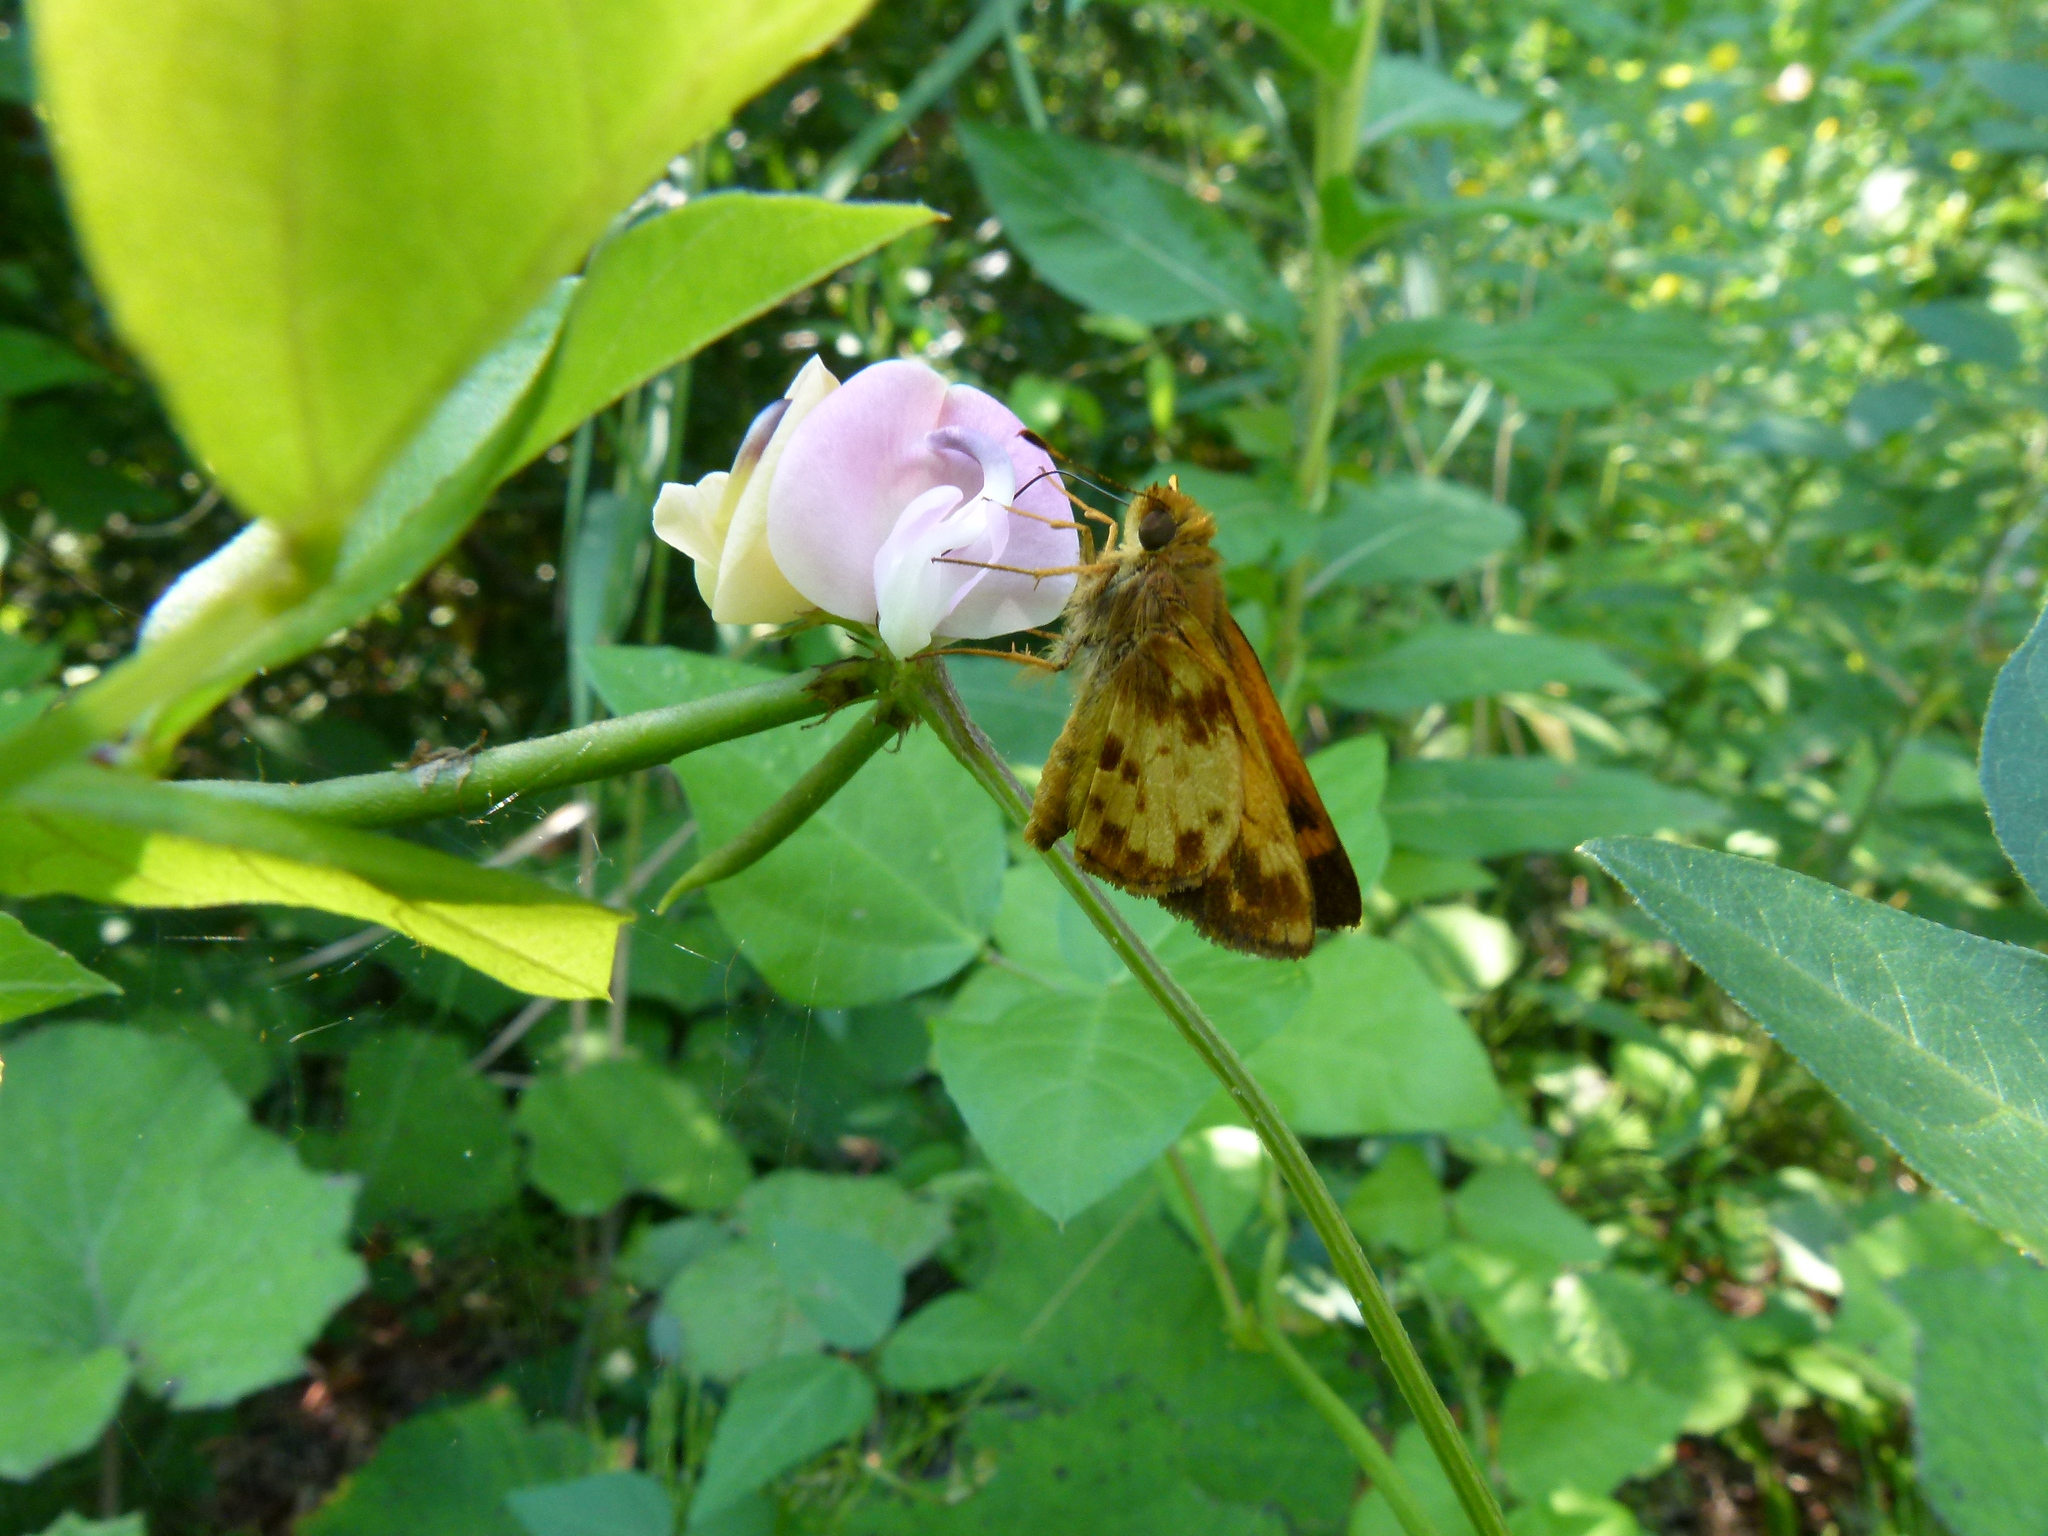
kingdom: Animalia
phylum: Arthropoda
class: Insecta
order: Lepidoptera
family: Hesperiidae
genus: Lon
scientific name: Lon zabulon
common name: Zabulon skipper
